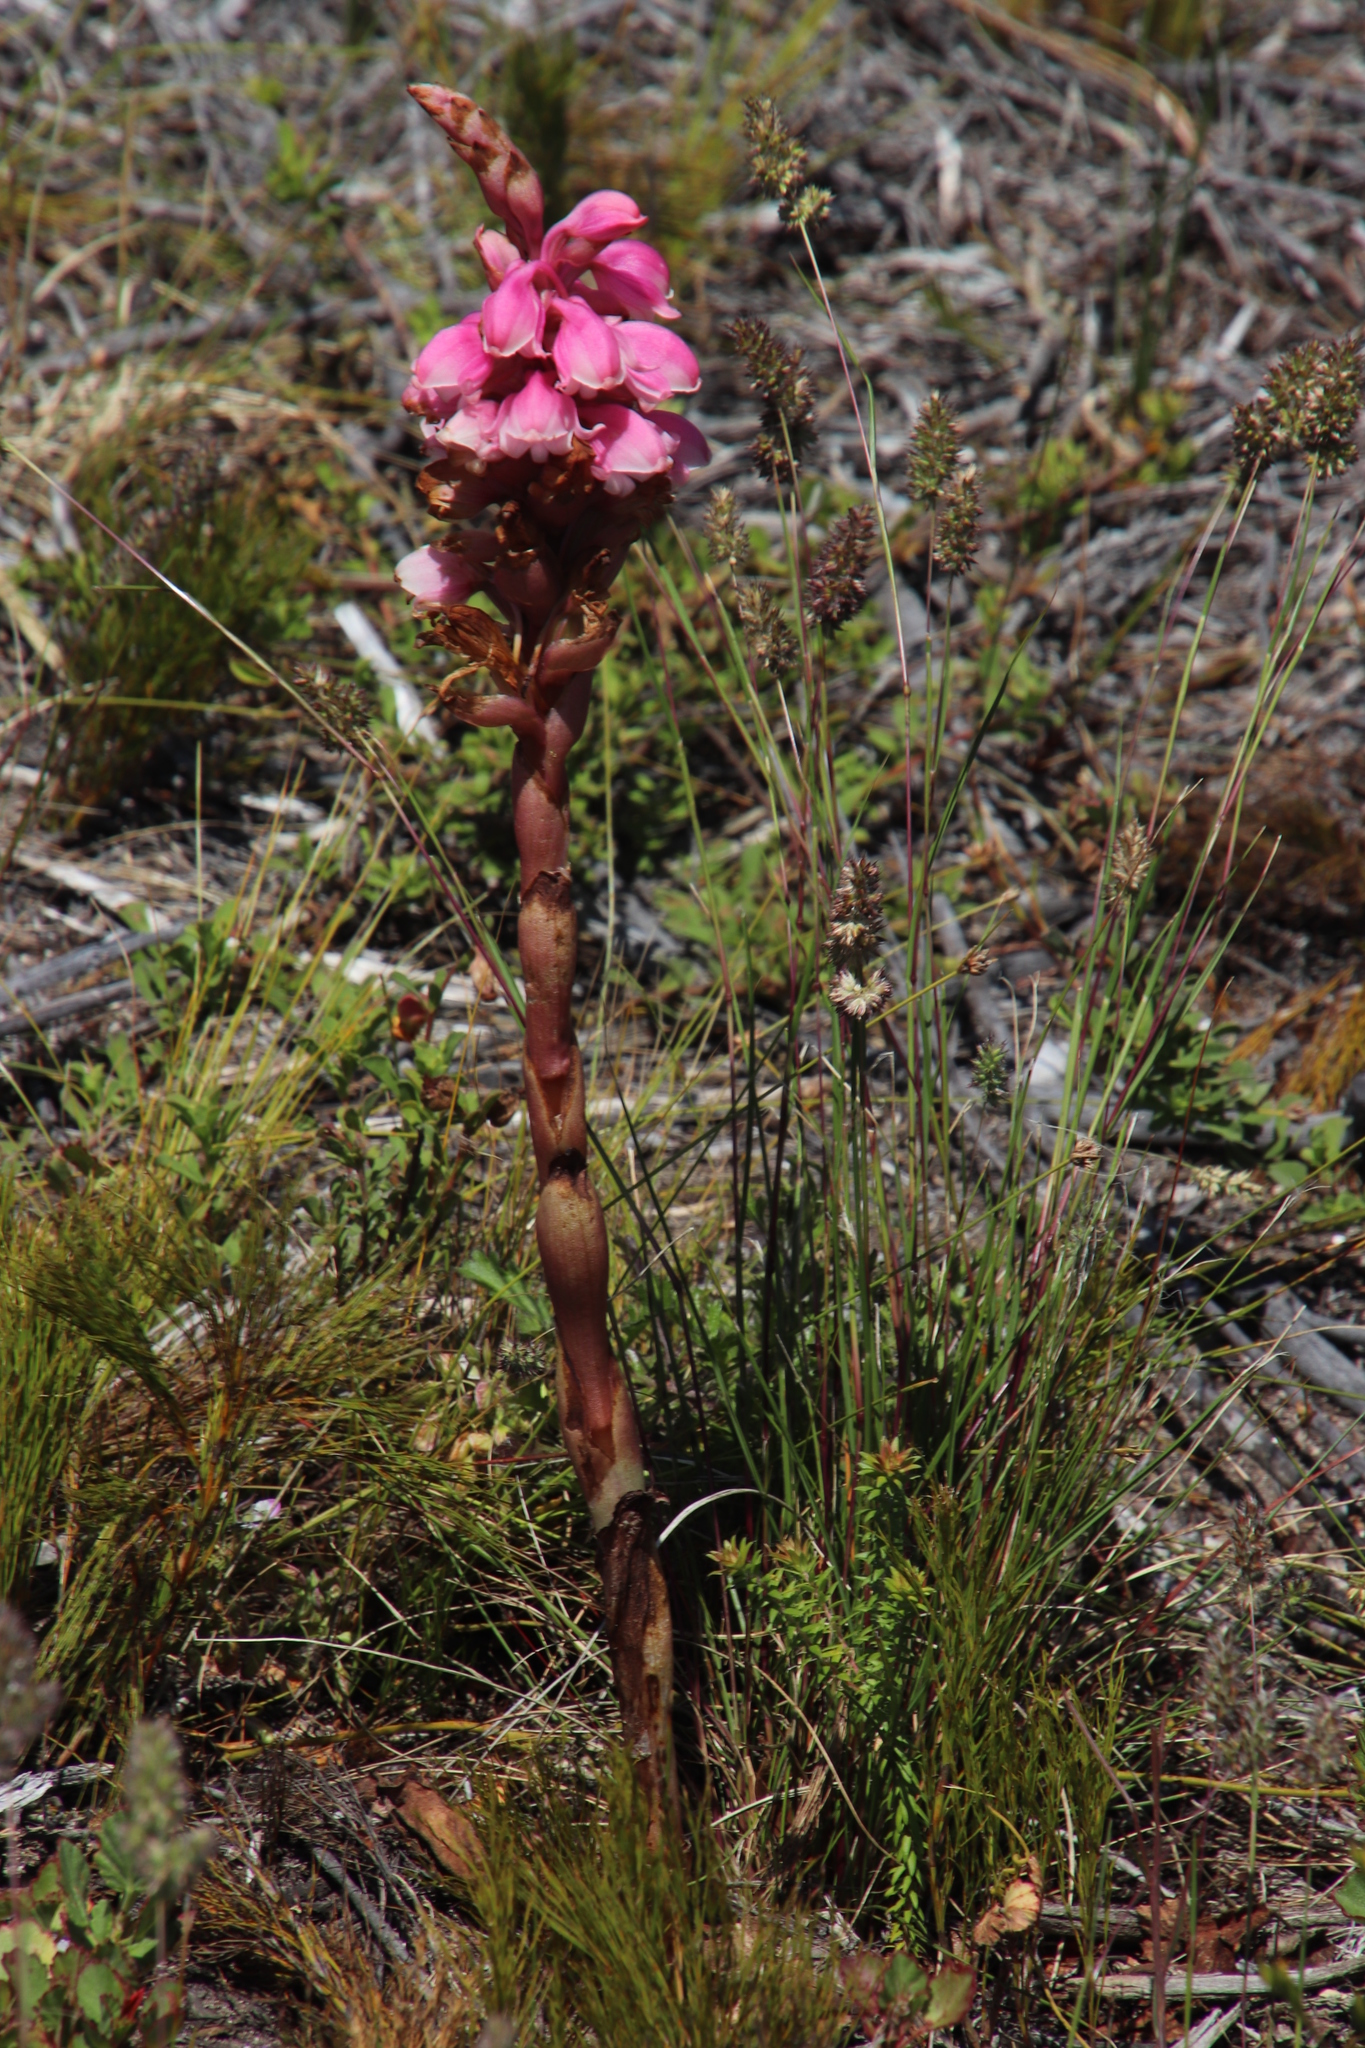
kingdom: Plantae
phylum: Tracheophyta
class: Liliopsida
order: Asparagales
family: Orchidaceae
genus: Satyrium
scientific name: Satyrium carneum
